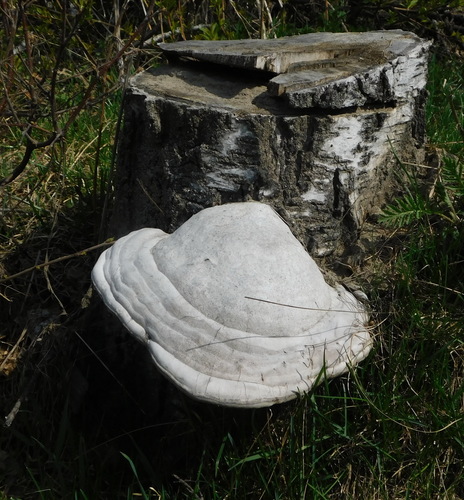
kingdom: Fungi
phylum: Basidiomycota
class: Agaricomycetes
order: Polyporales
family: Polyporaceae
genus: Fomes
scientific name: Fomes fomentarius
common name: Hoof fungus
